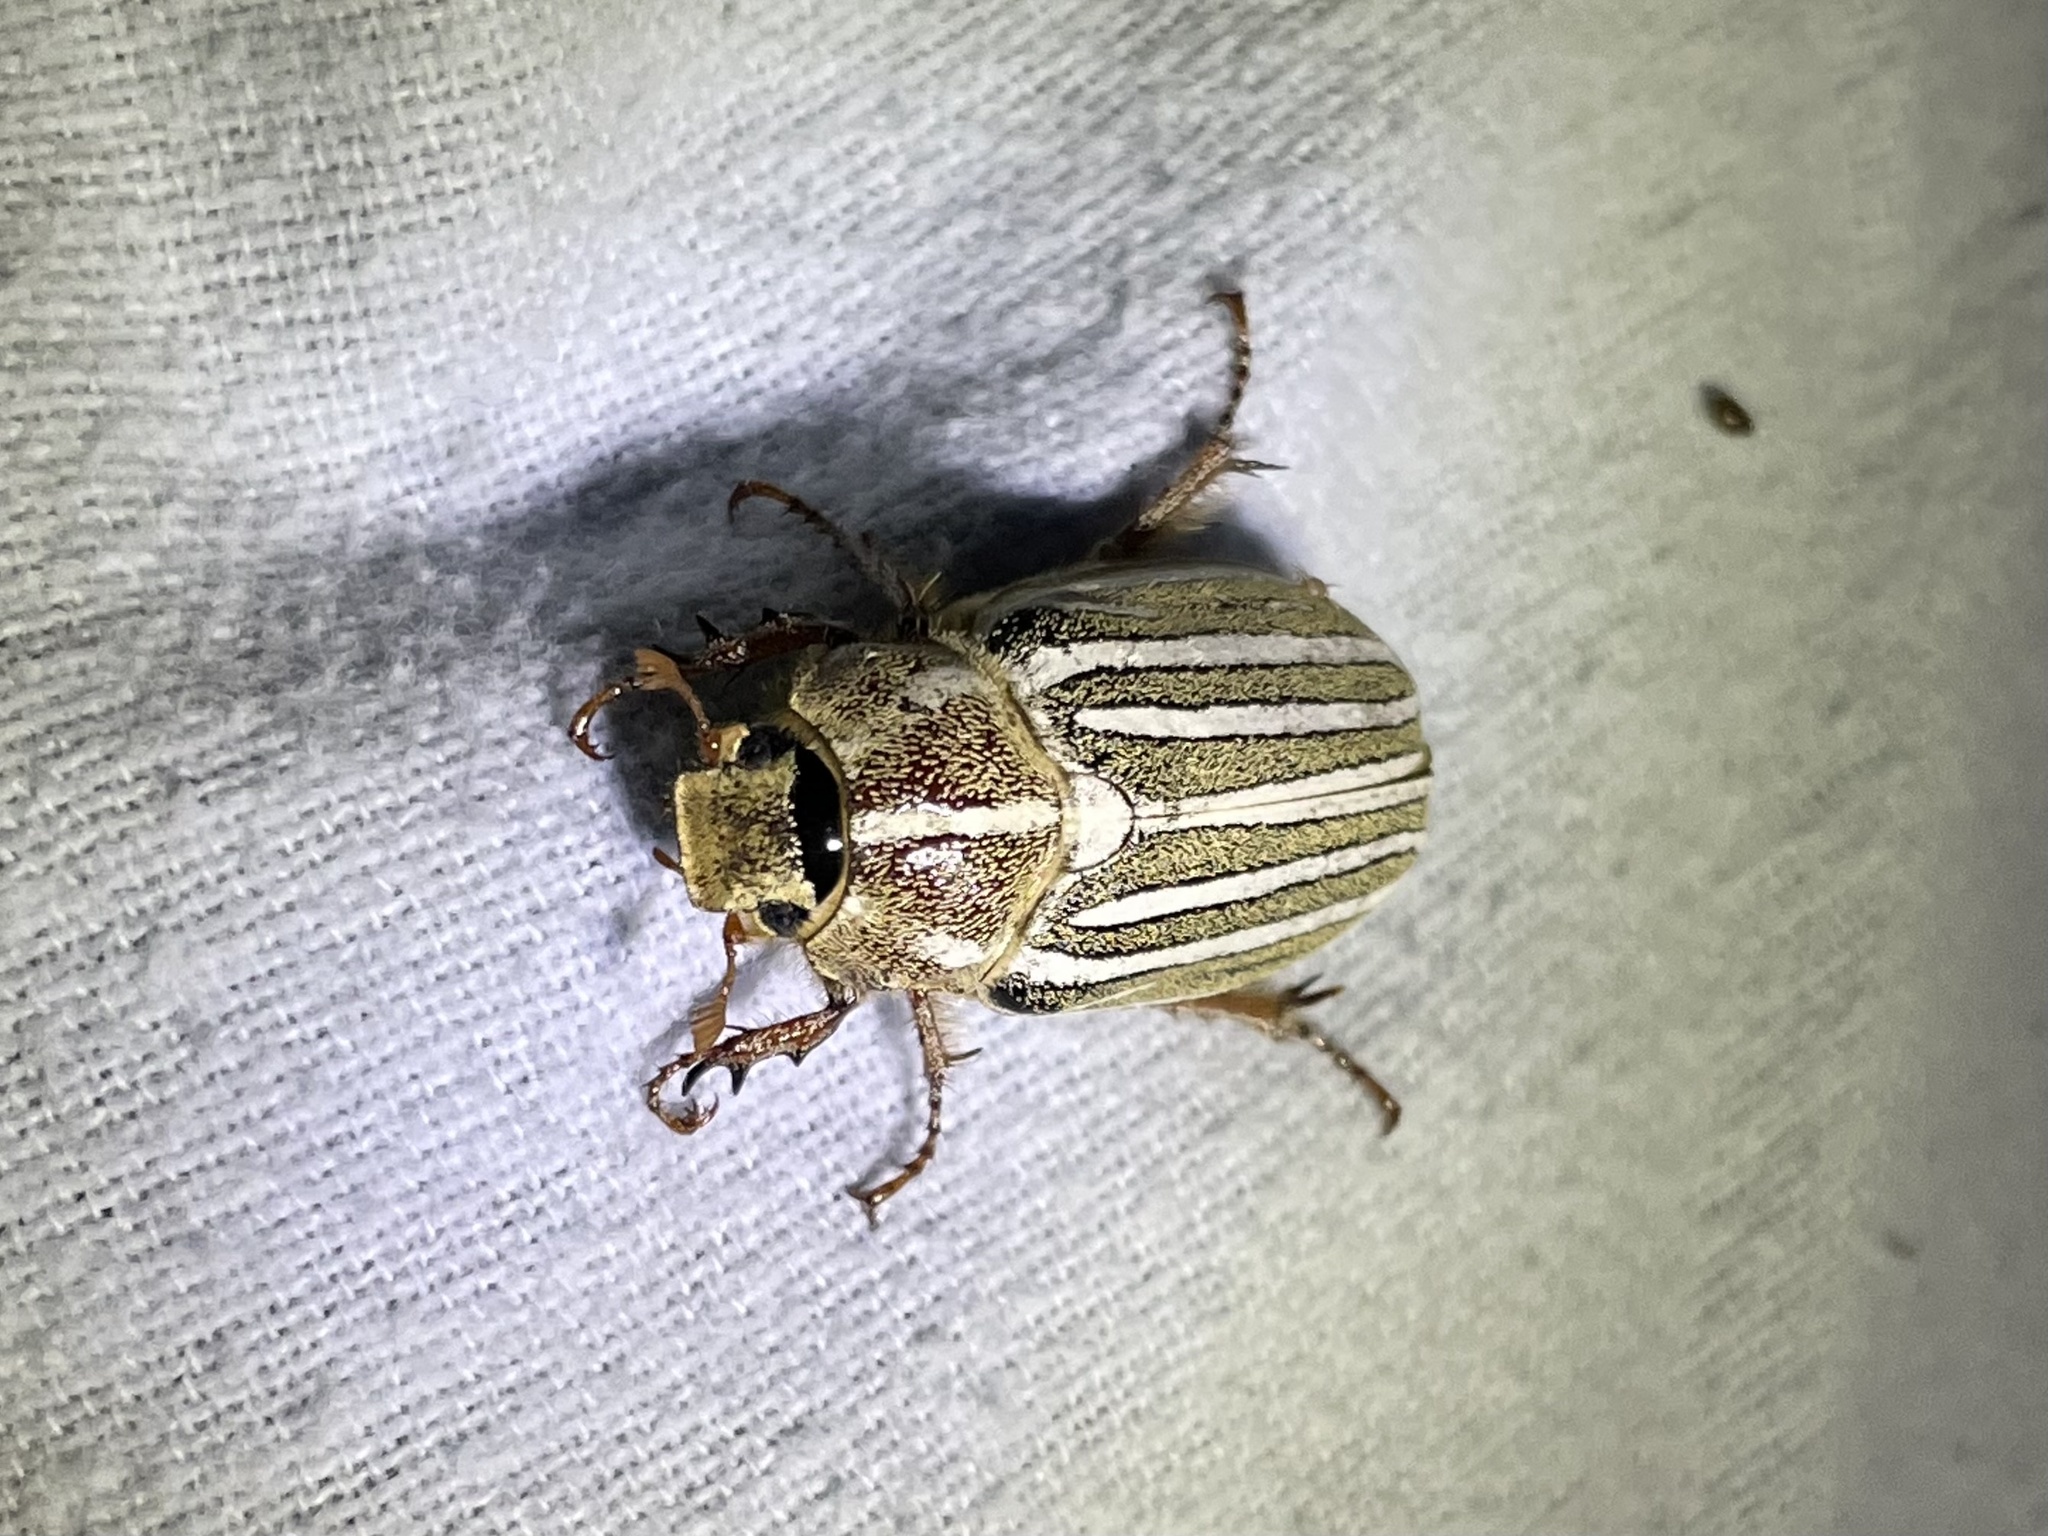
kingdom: Animalia
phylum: Arthropoda
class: Insecta
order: Coleoptera
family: Scarabaeidae
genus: Polyphylla
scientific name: Polyphylla decemlineata
